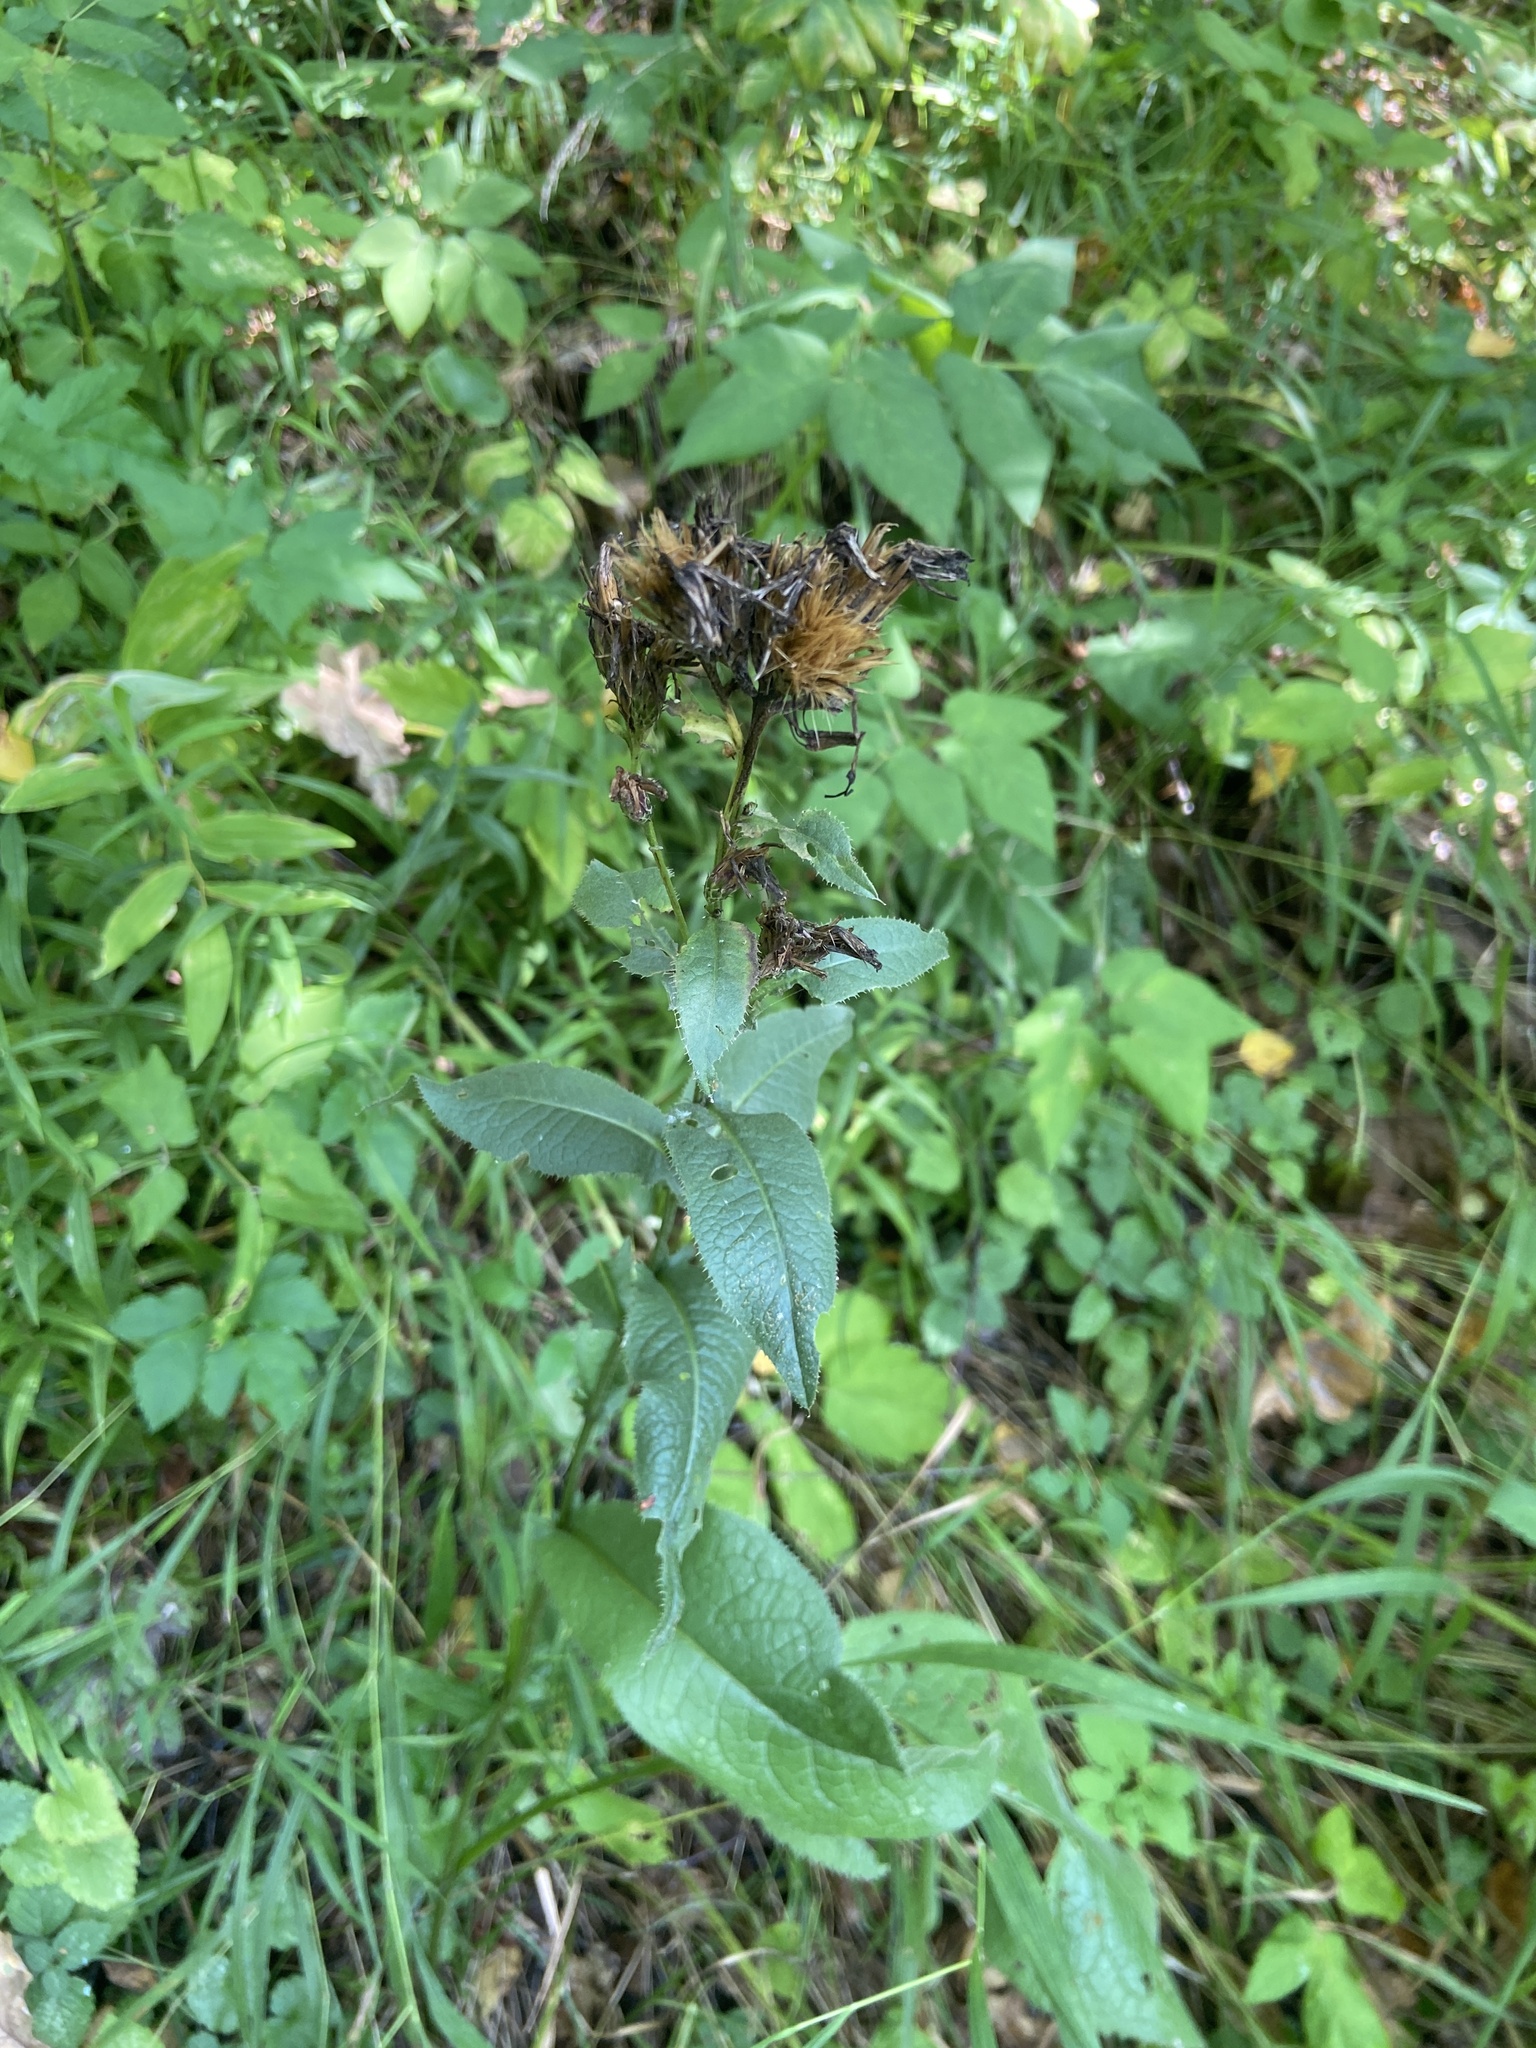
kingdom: Plantae
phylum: Tracheophyta
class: Magnoliopsida
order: Asterales
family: Asteraceae
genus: Serratula
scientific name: Serratula tinctoria
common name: Saw-wort
